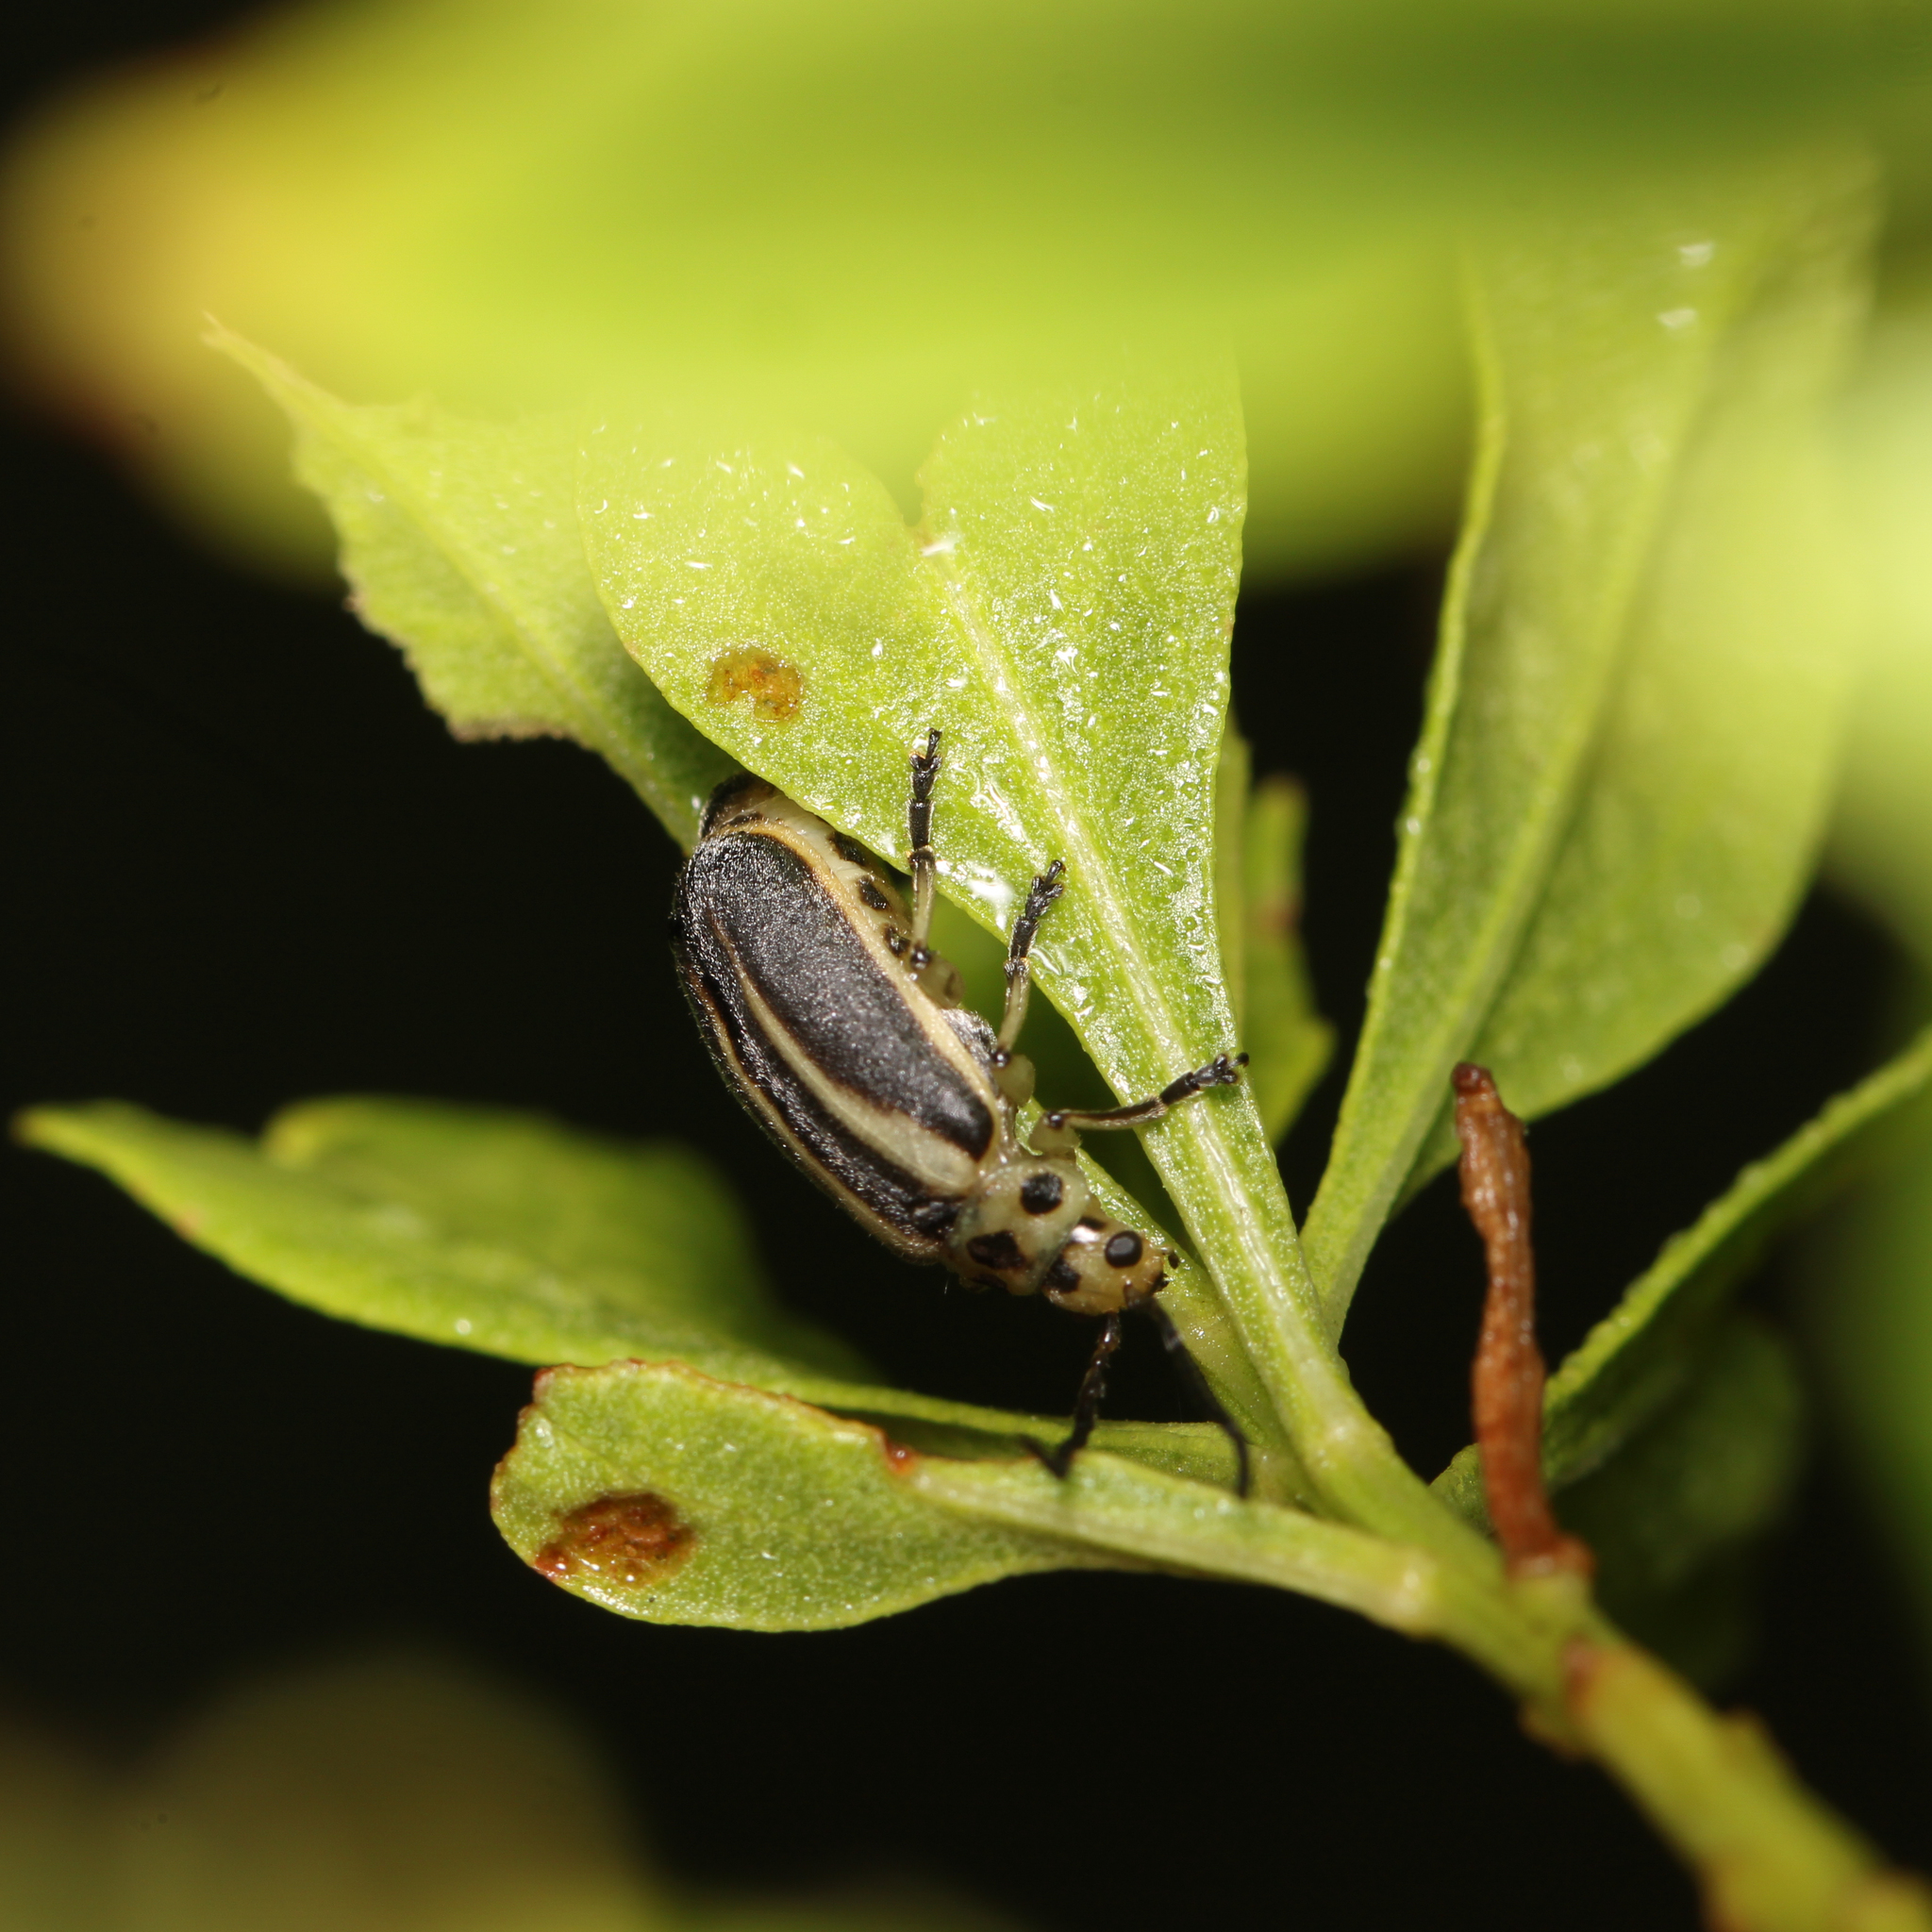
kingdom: Animalia
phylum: Arthropoda
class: Insecta
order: Coleoptera
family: Chrysomelidae
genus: Trirhabda
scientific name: Trirhabda bacharidis
